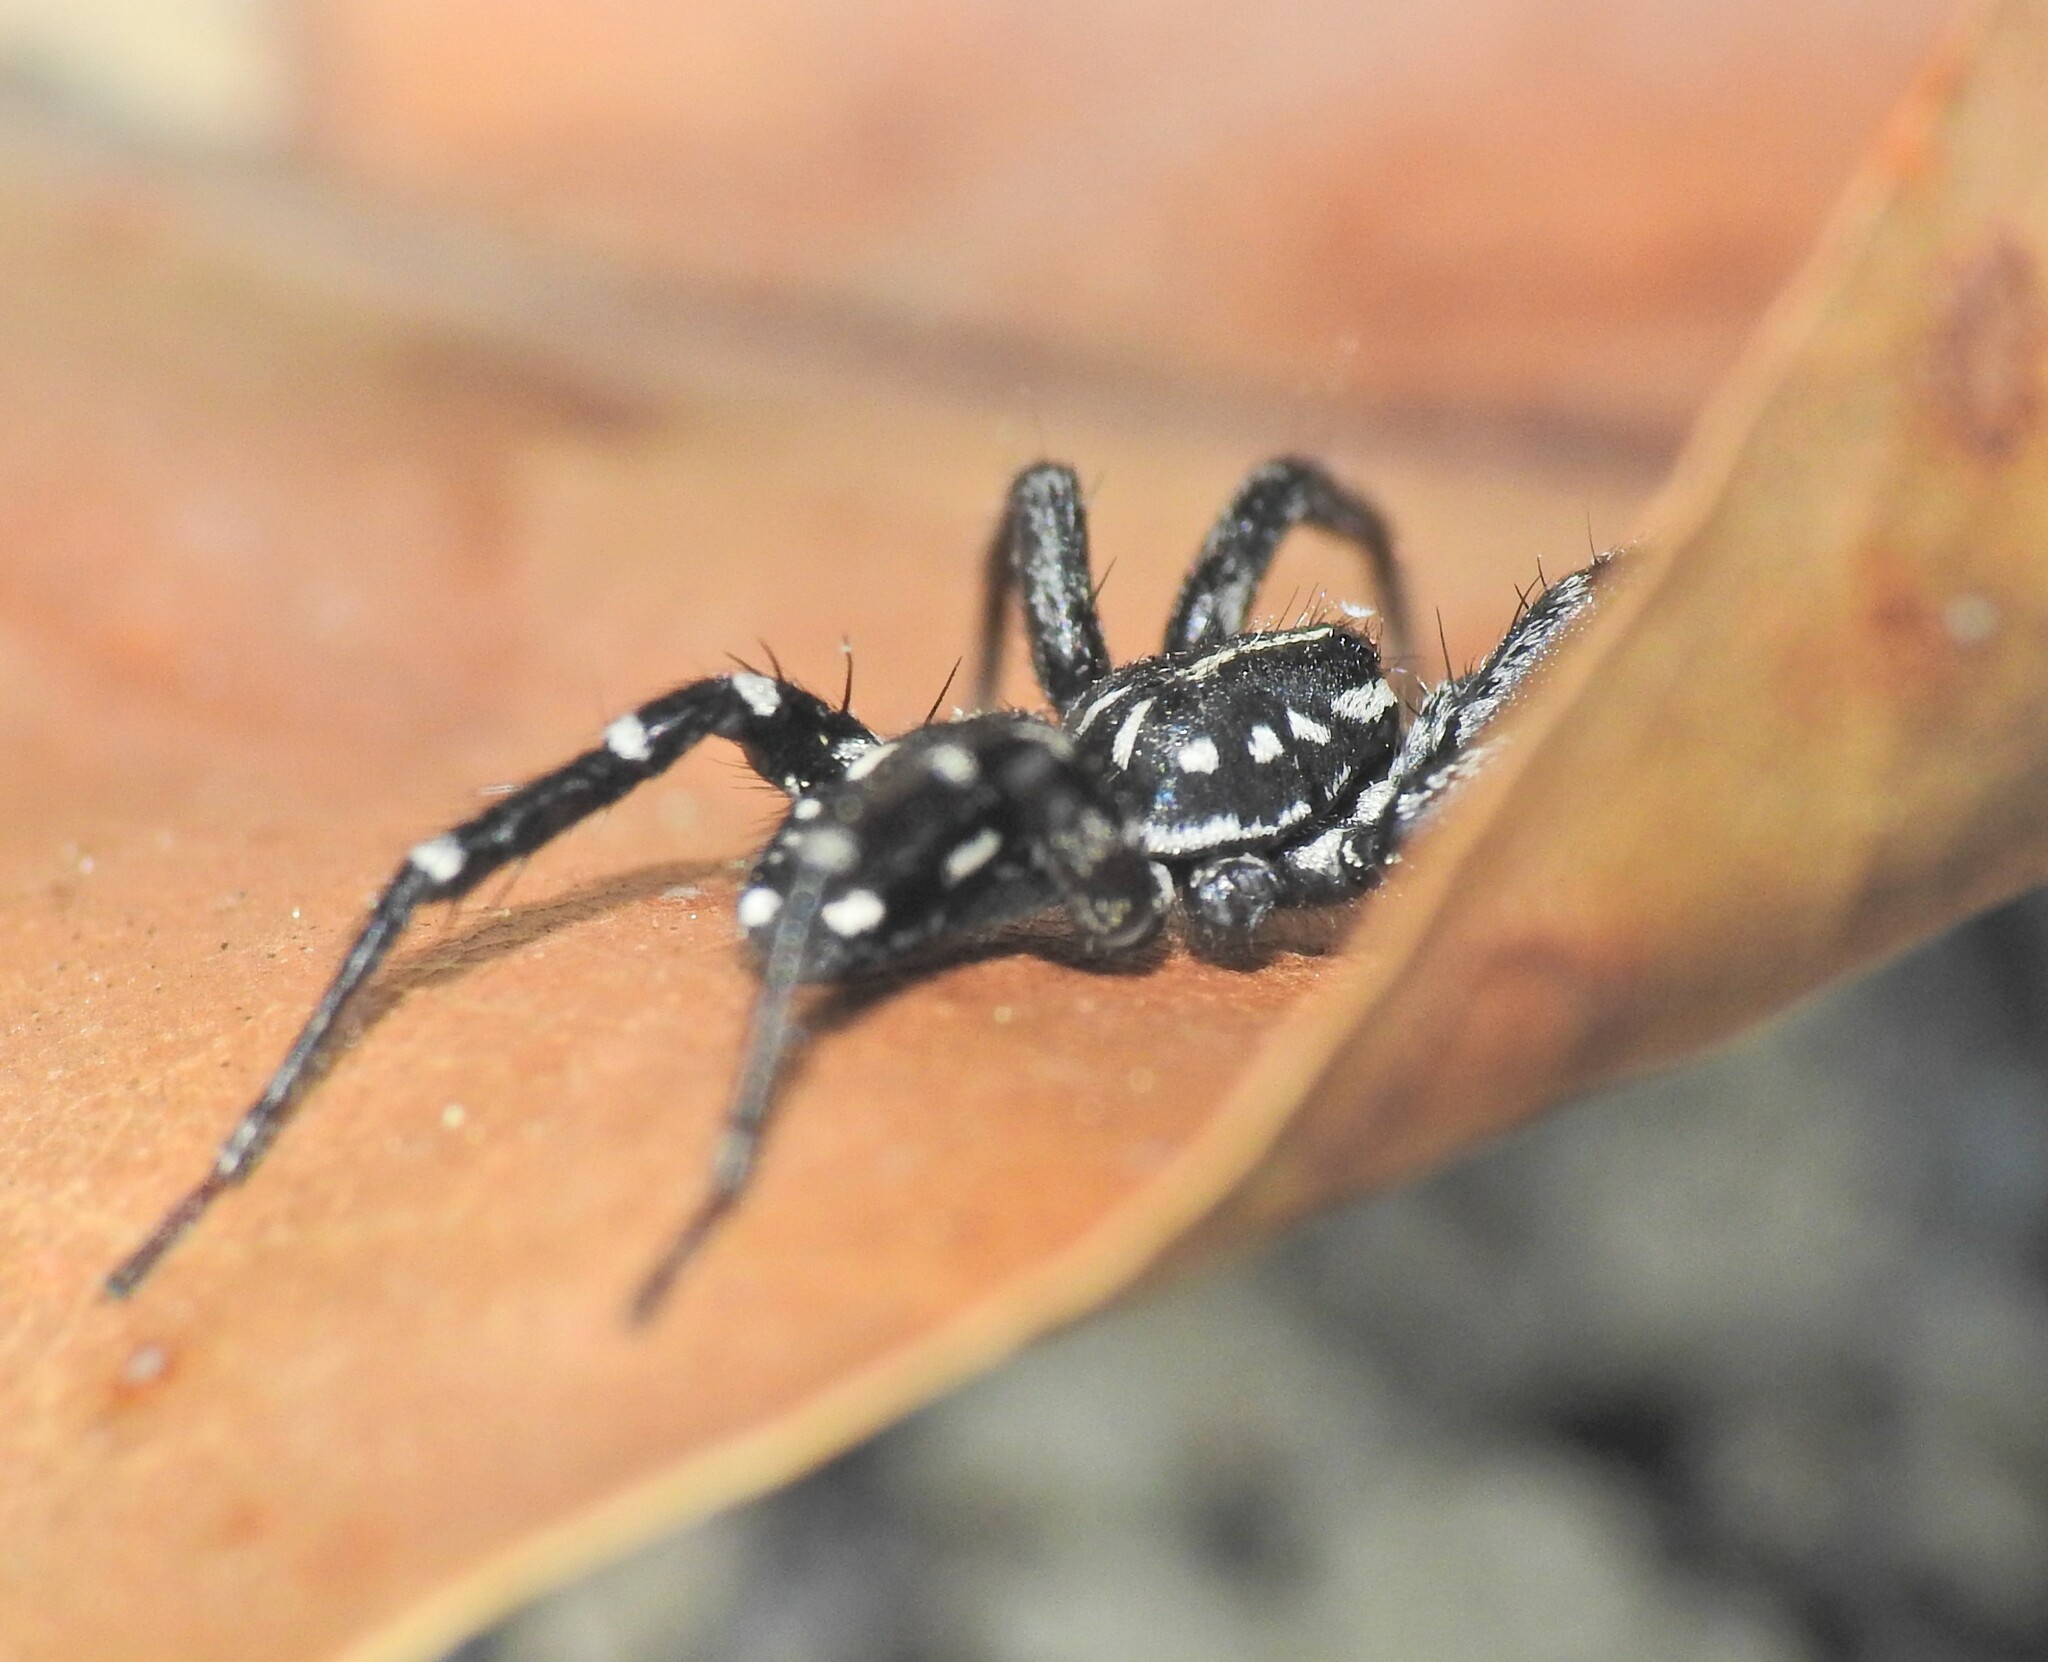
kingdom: Animalia
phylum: Arthropoda
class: Arachnida
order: Araneae
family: Corinnidae
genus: Nyssus
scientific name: Nyssus albopunctatus
